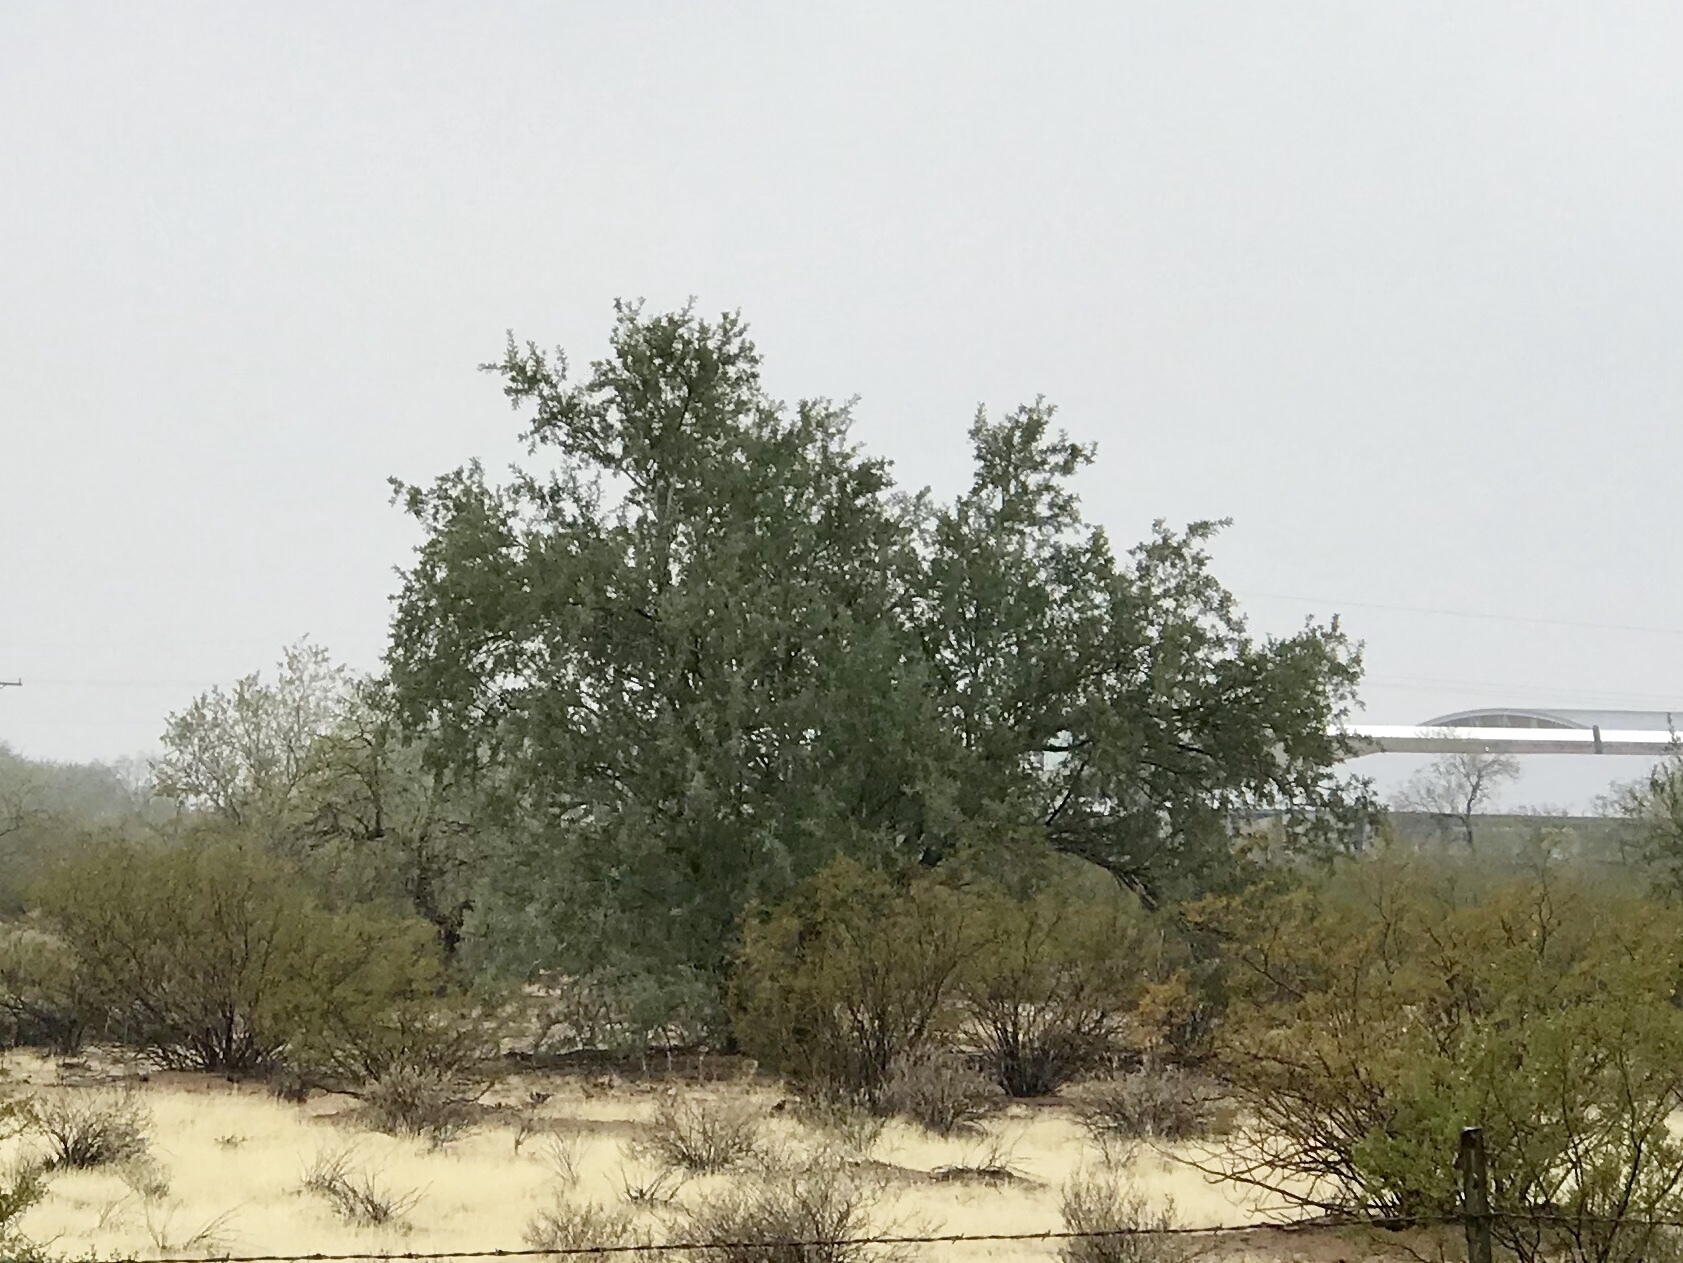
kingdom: Plantae
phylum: Tracheophyta
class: Magnoliopsida
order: Fabales
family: Fabaceae
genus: Olneya
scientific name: Olneya tesota
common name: Desert ironwood
